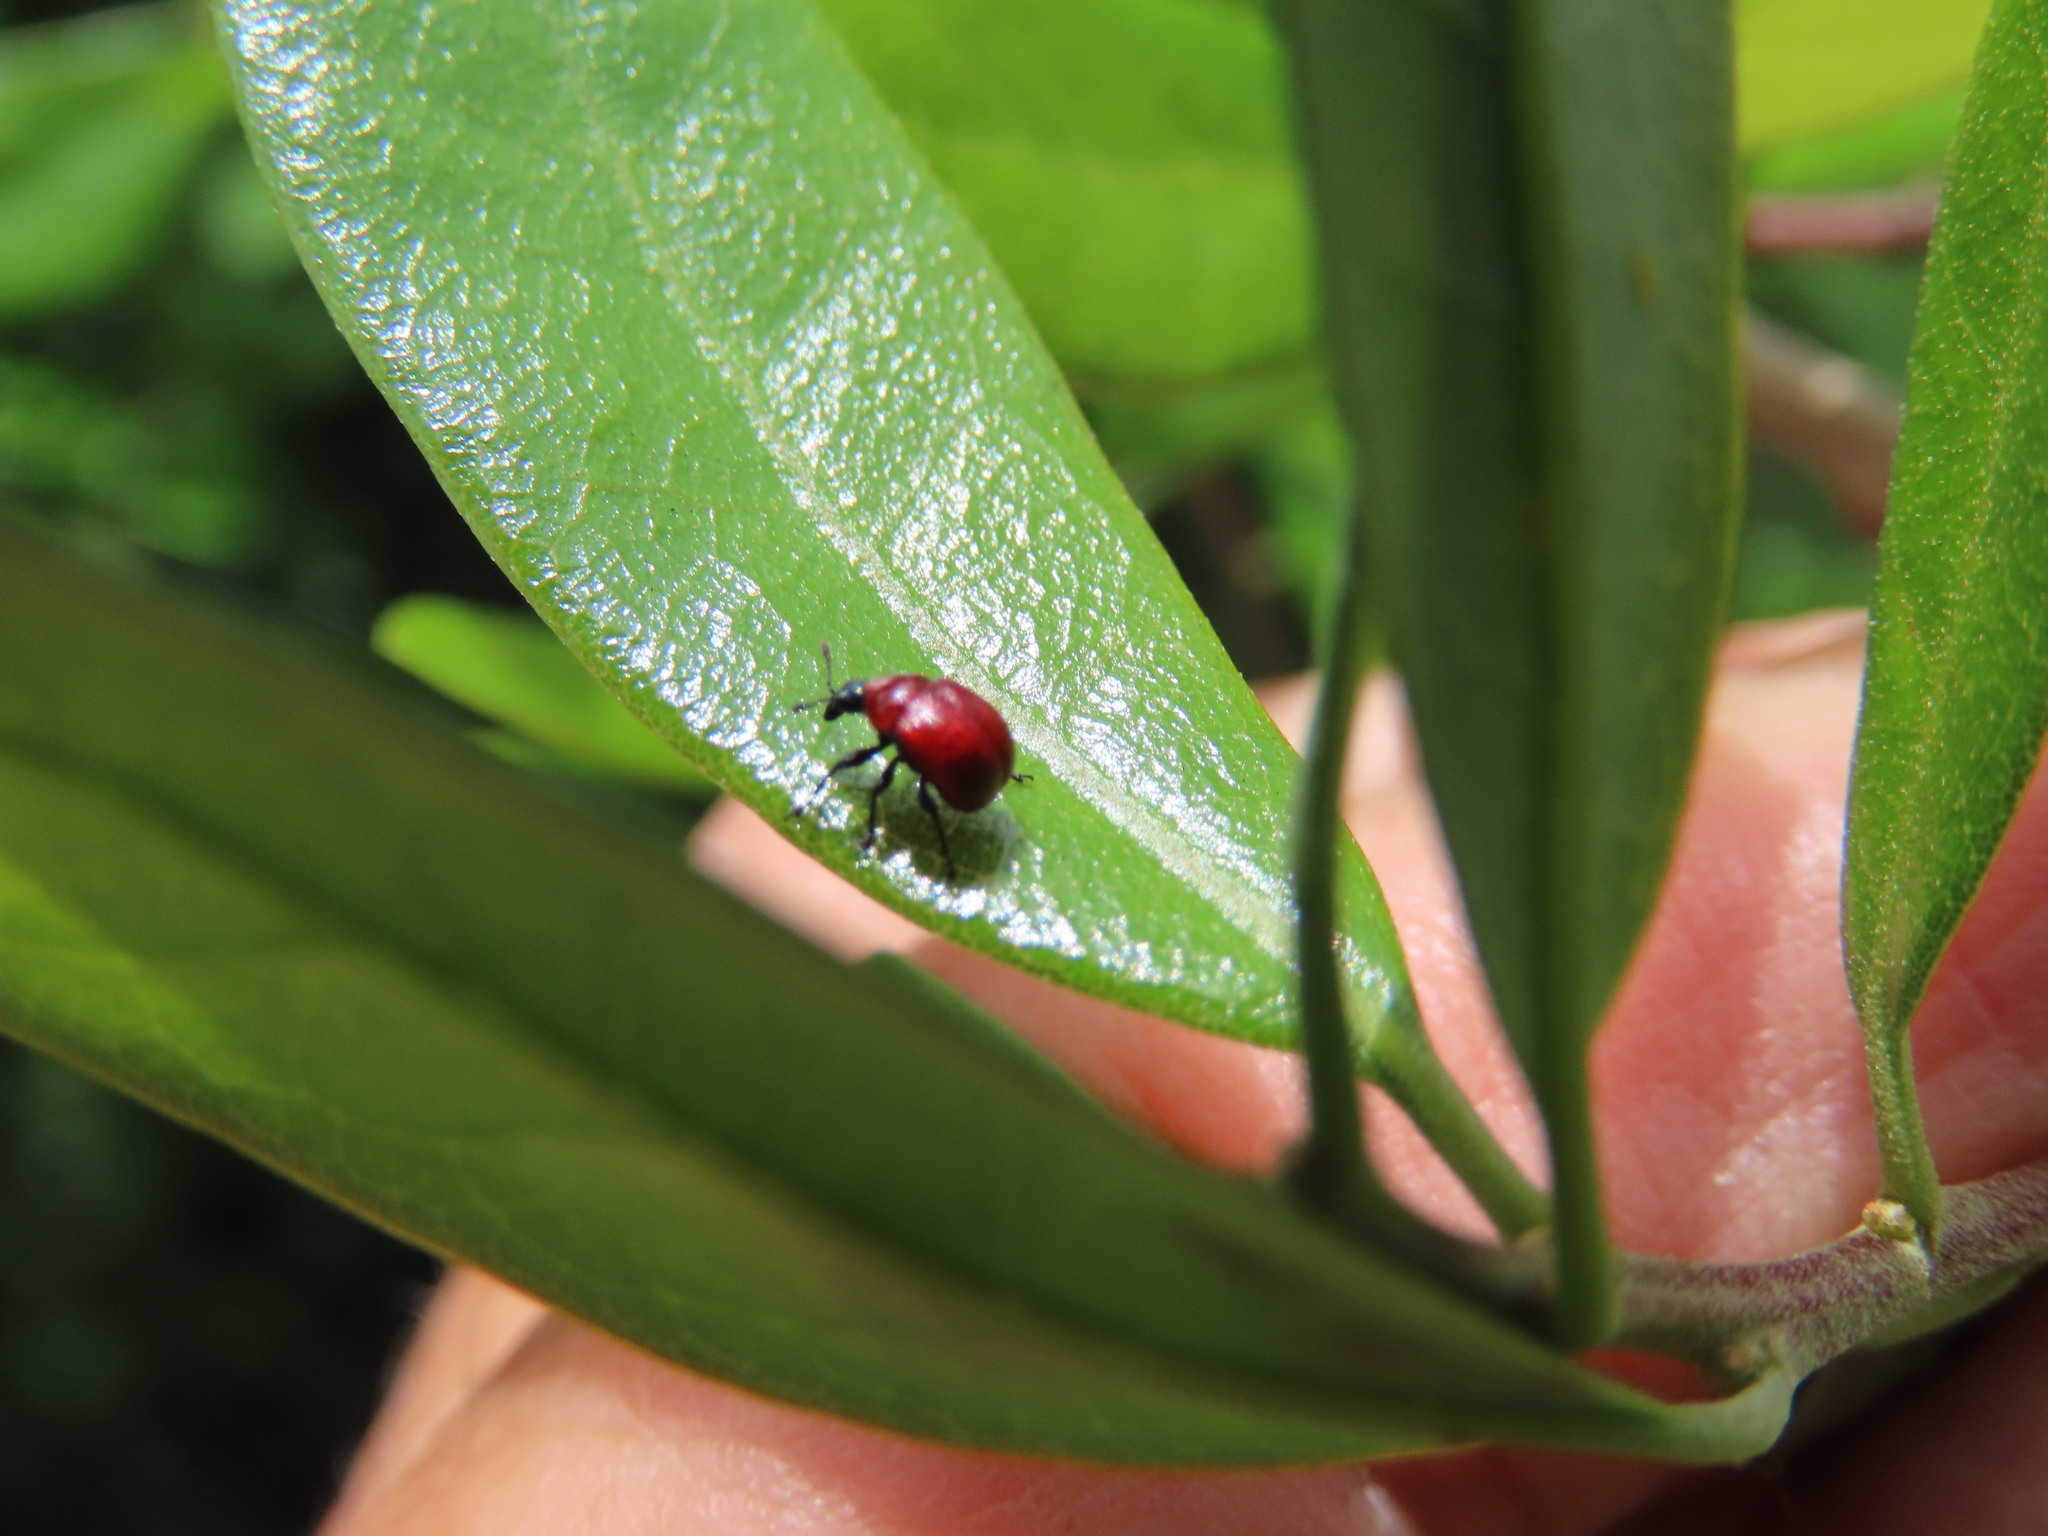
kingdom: Animalia
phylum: Arthropoda
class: Insecta
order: Coleoptera
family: Attelabidae
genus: Homoeolabus
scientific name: Homoeolabus analis
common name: Oak leaf rolling weevil
